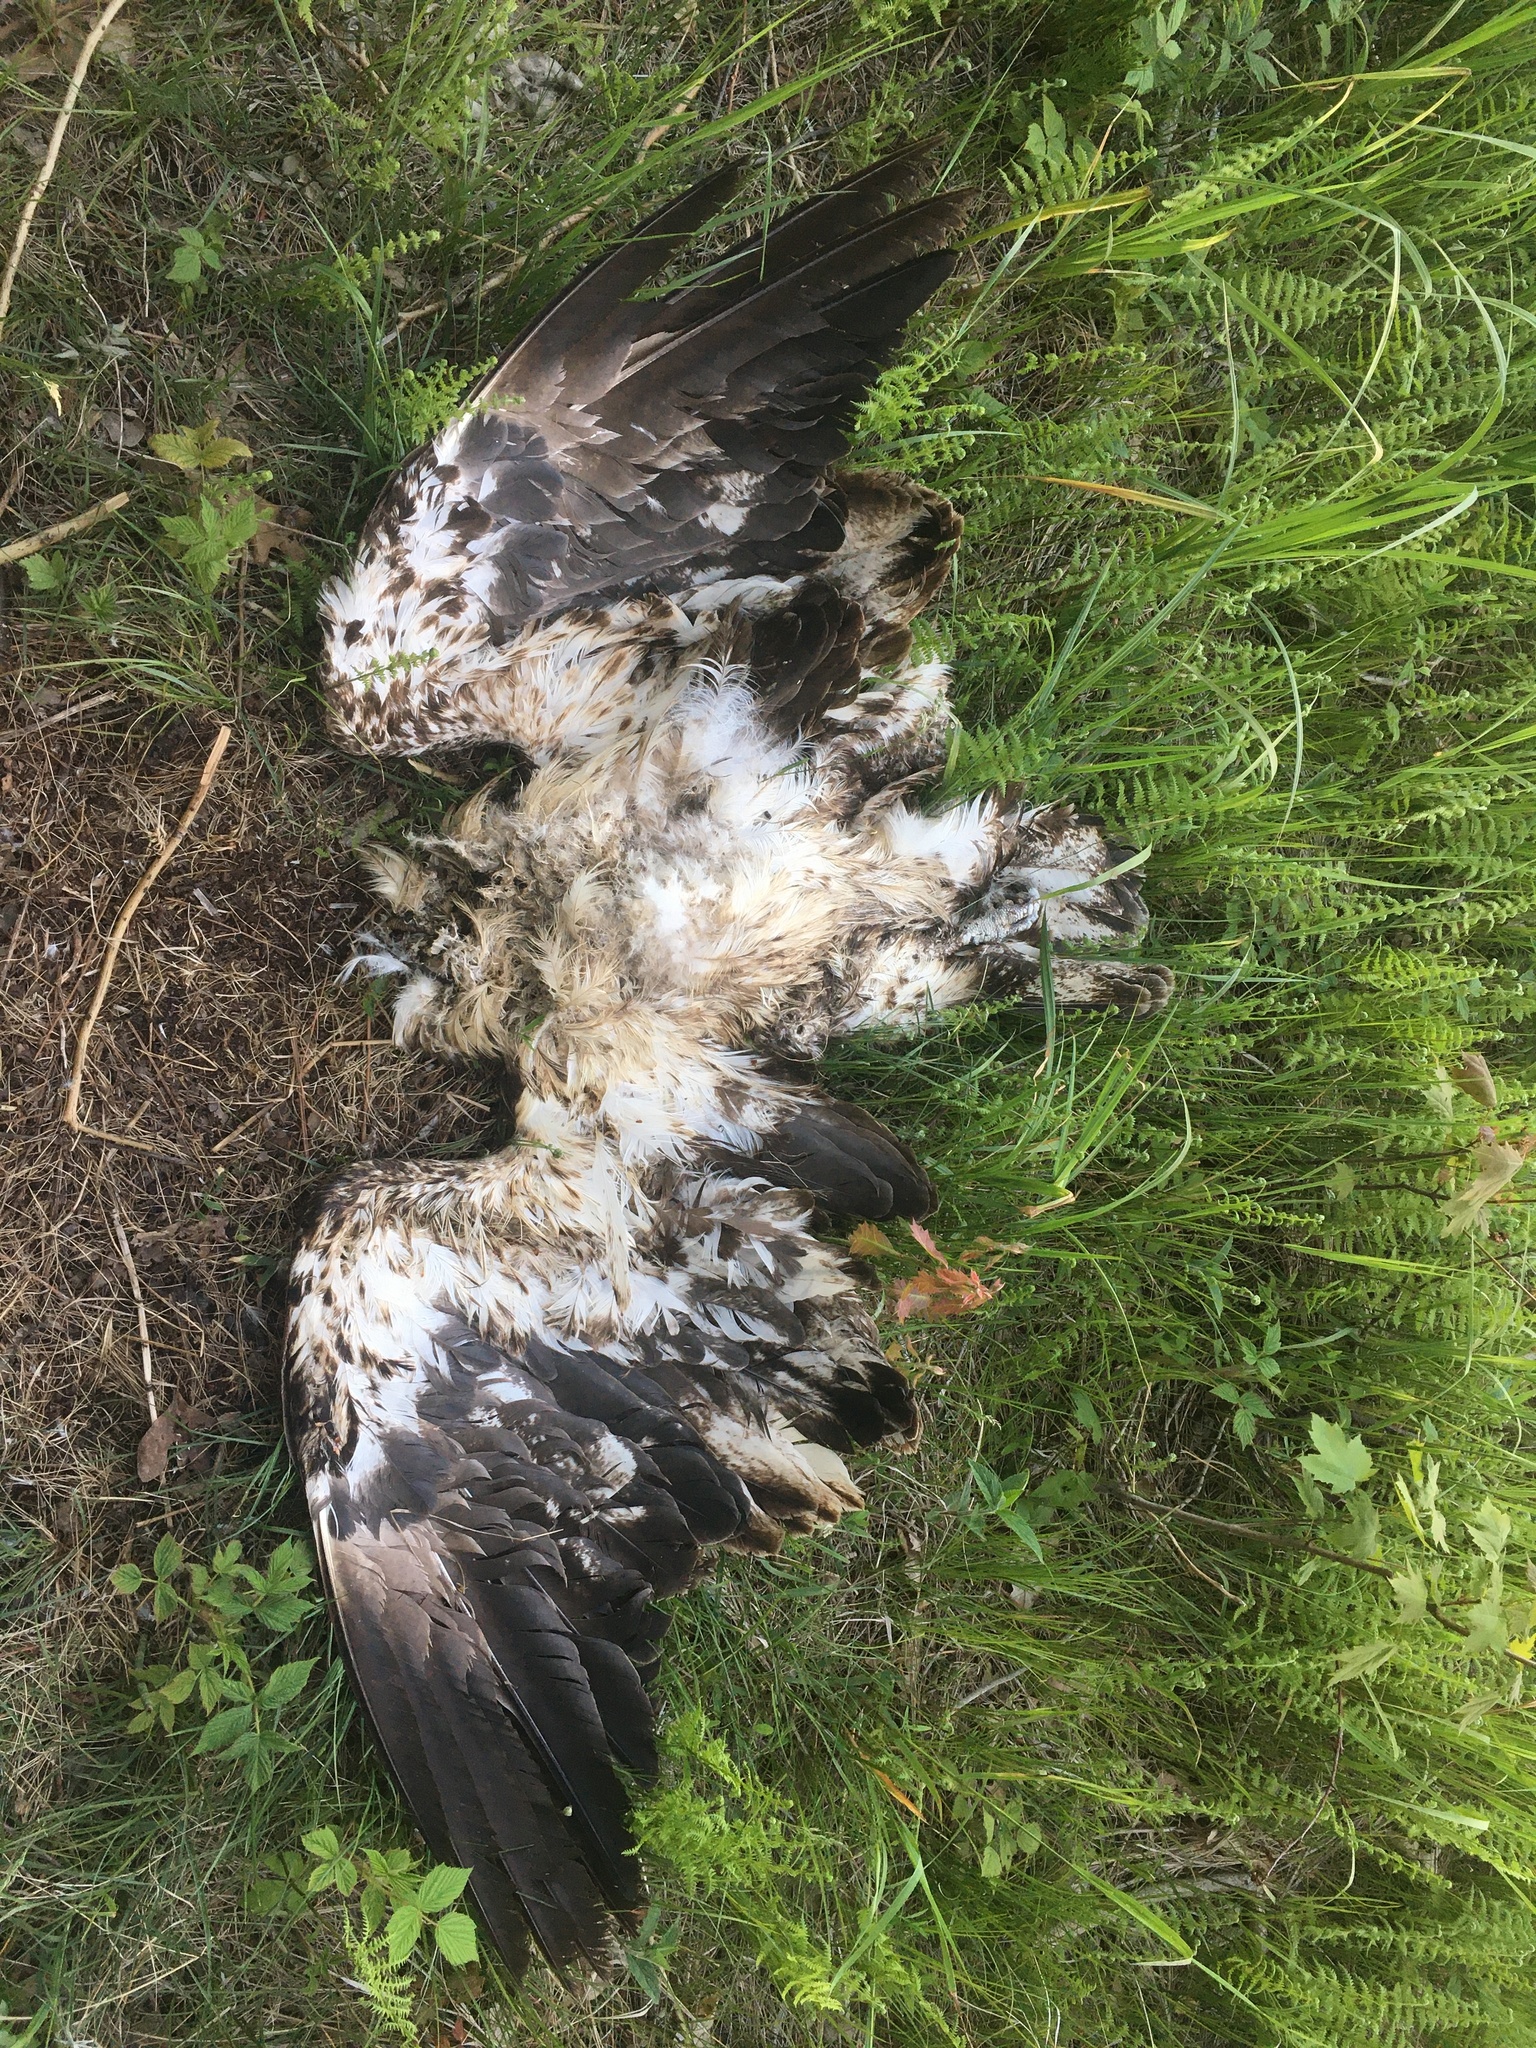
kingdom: Animalia
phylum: Chordata
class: Aves
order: Accipitriformes
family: Accipitridae
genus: Haliaeetus
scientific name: Haliaeetus leucocephalus
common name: Bald eagle
